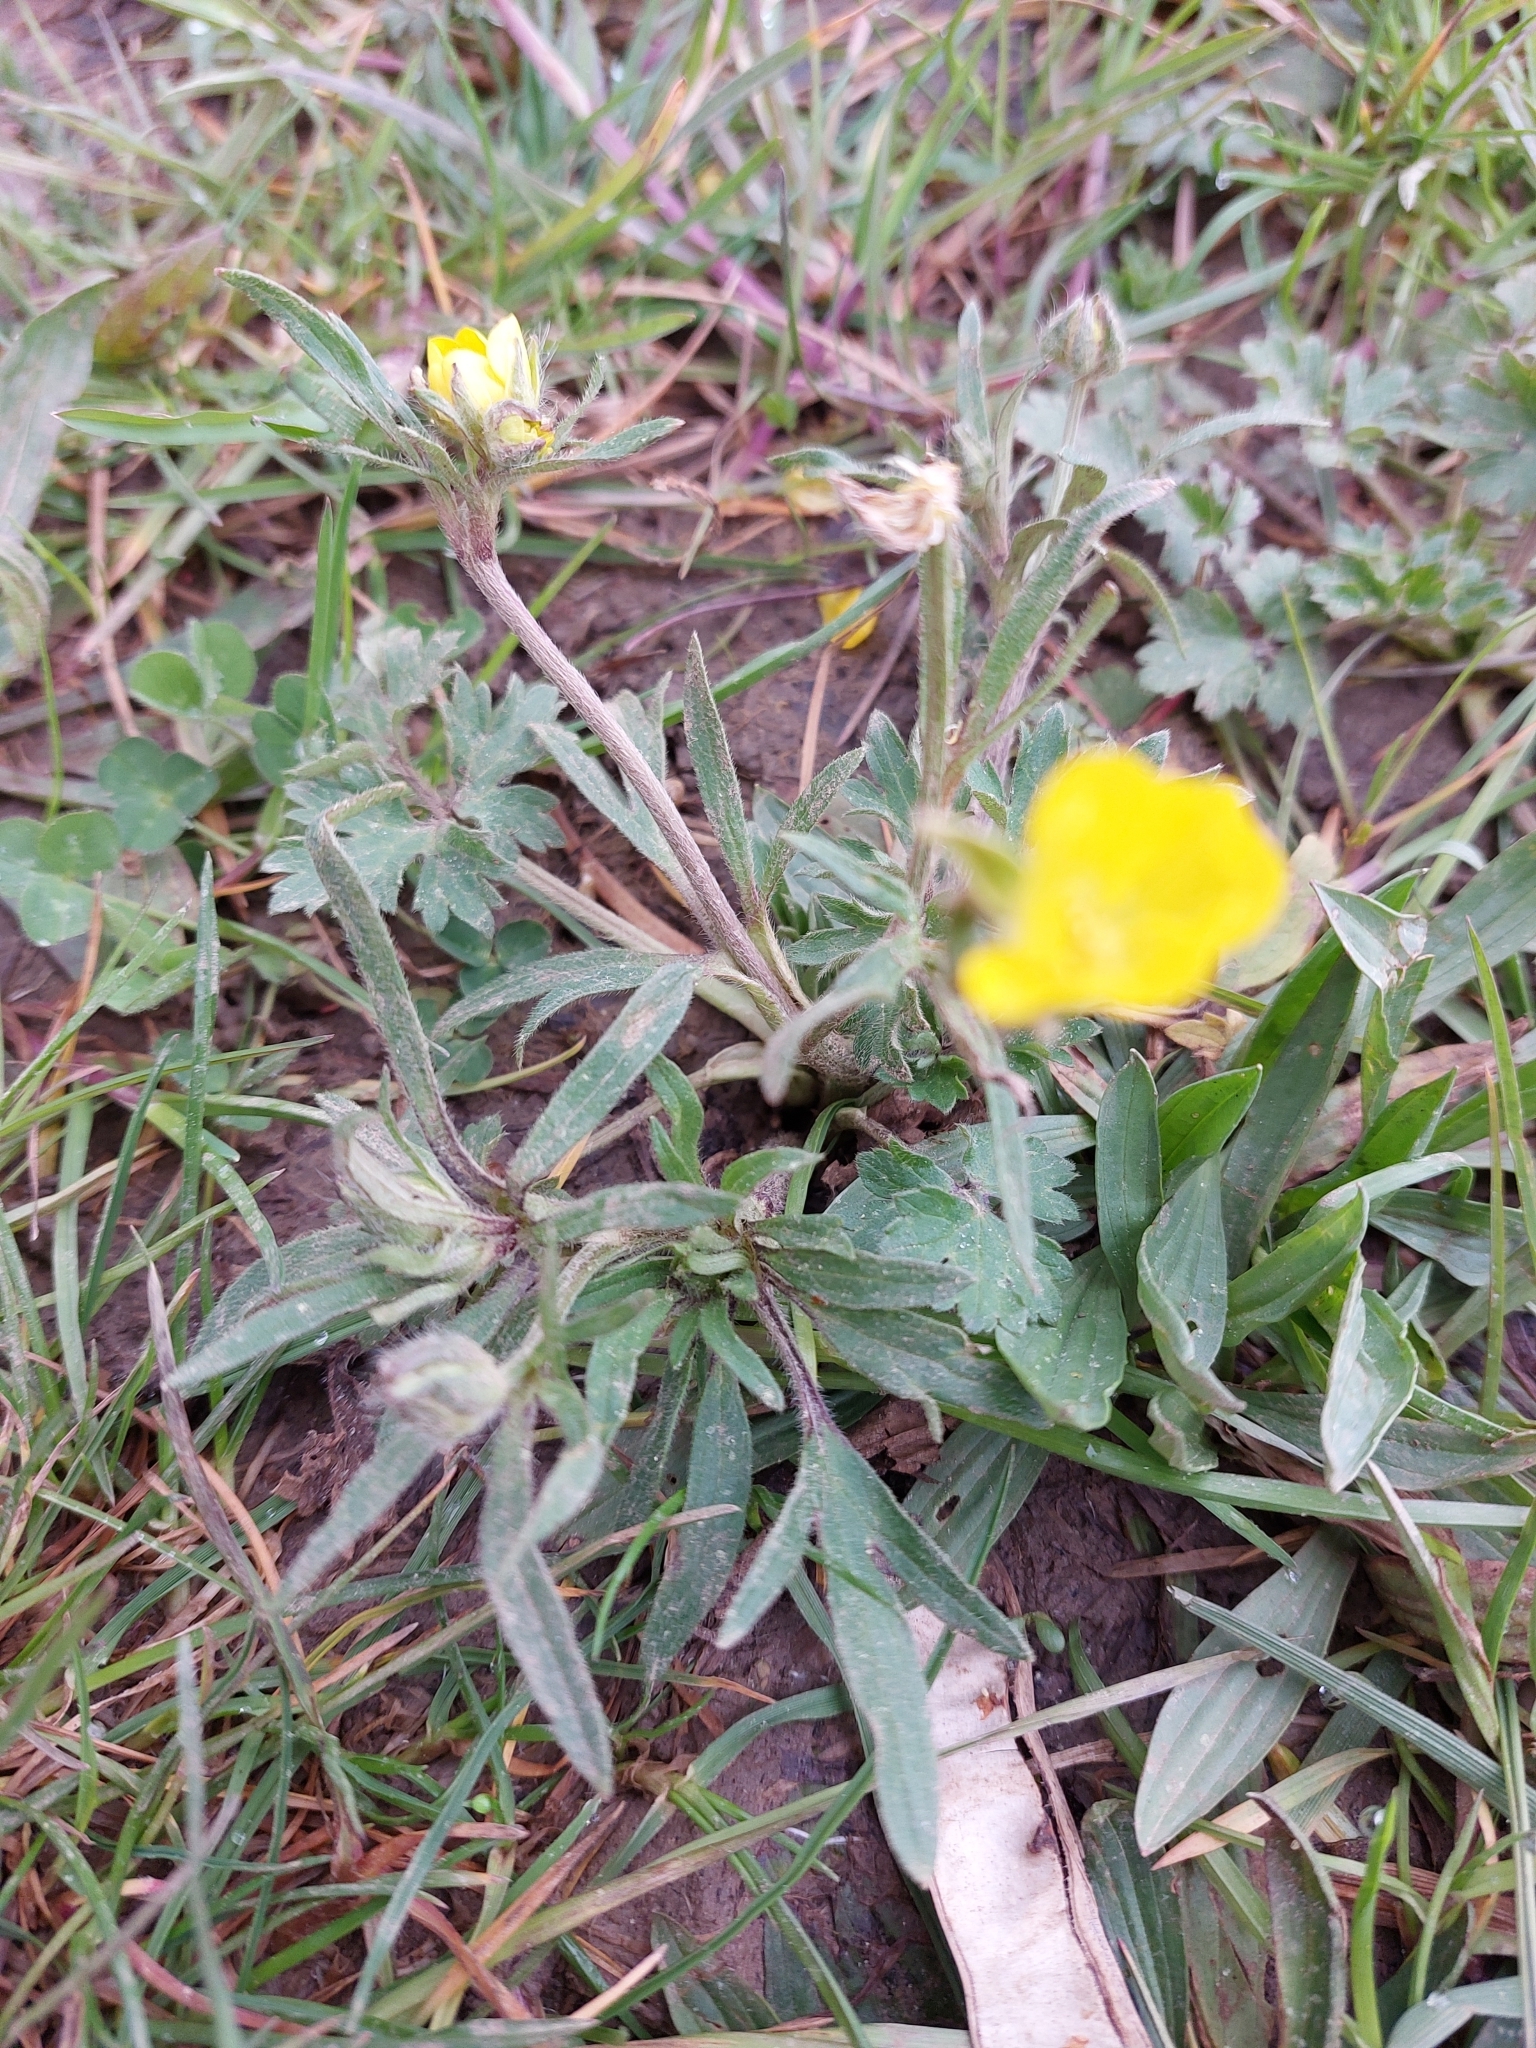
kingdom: Plantae
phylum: Tracheophyta
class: Magnoliopsida
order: Ranunculales
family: Ranunculaceae
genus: Ranunculus
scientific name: Ranunculus bulbosus
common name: Bulbous buttercup
